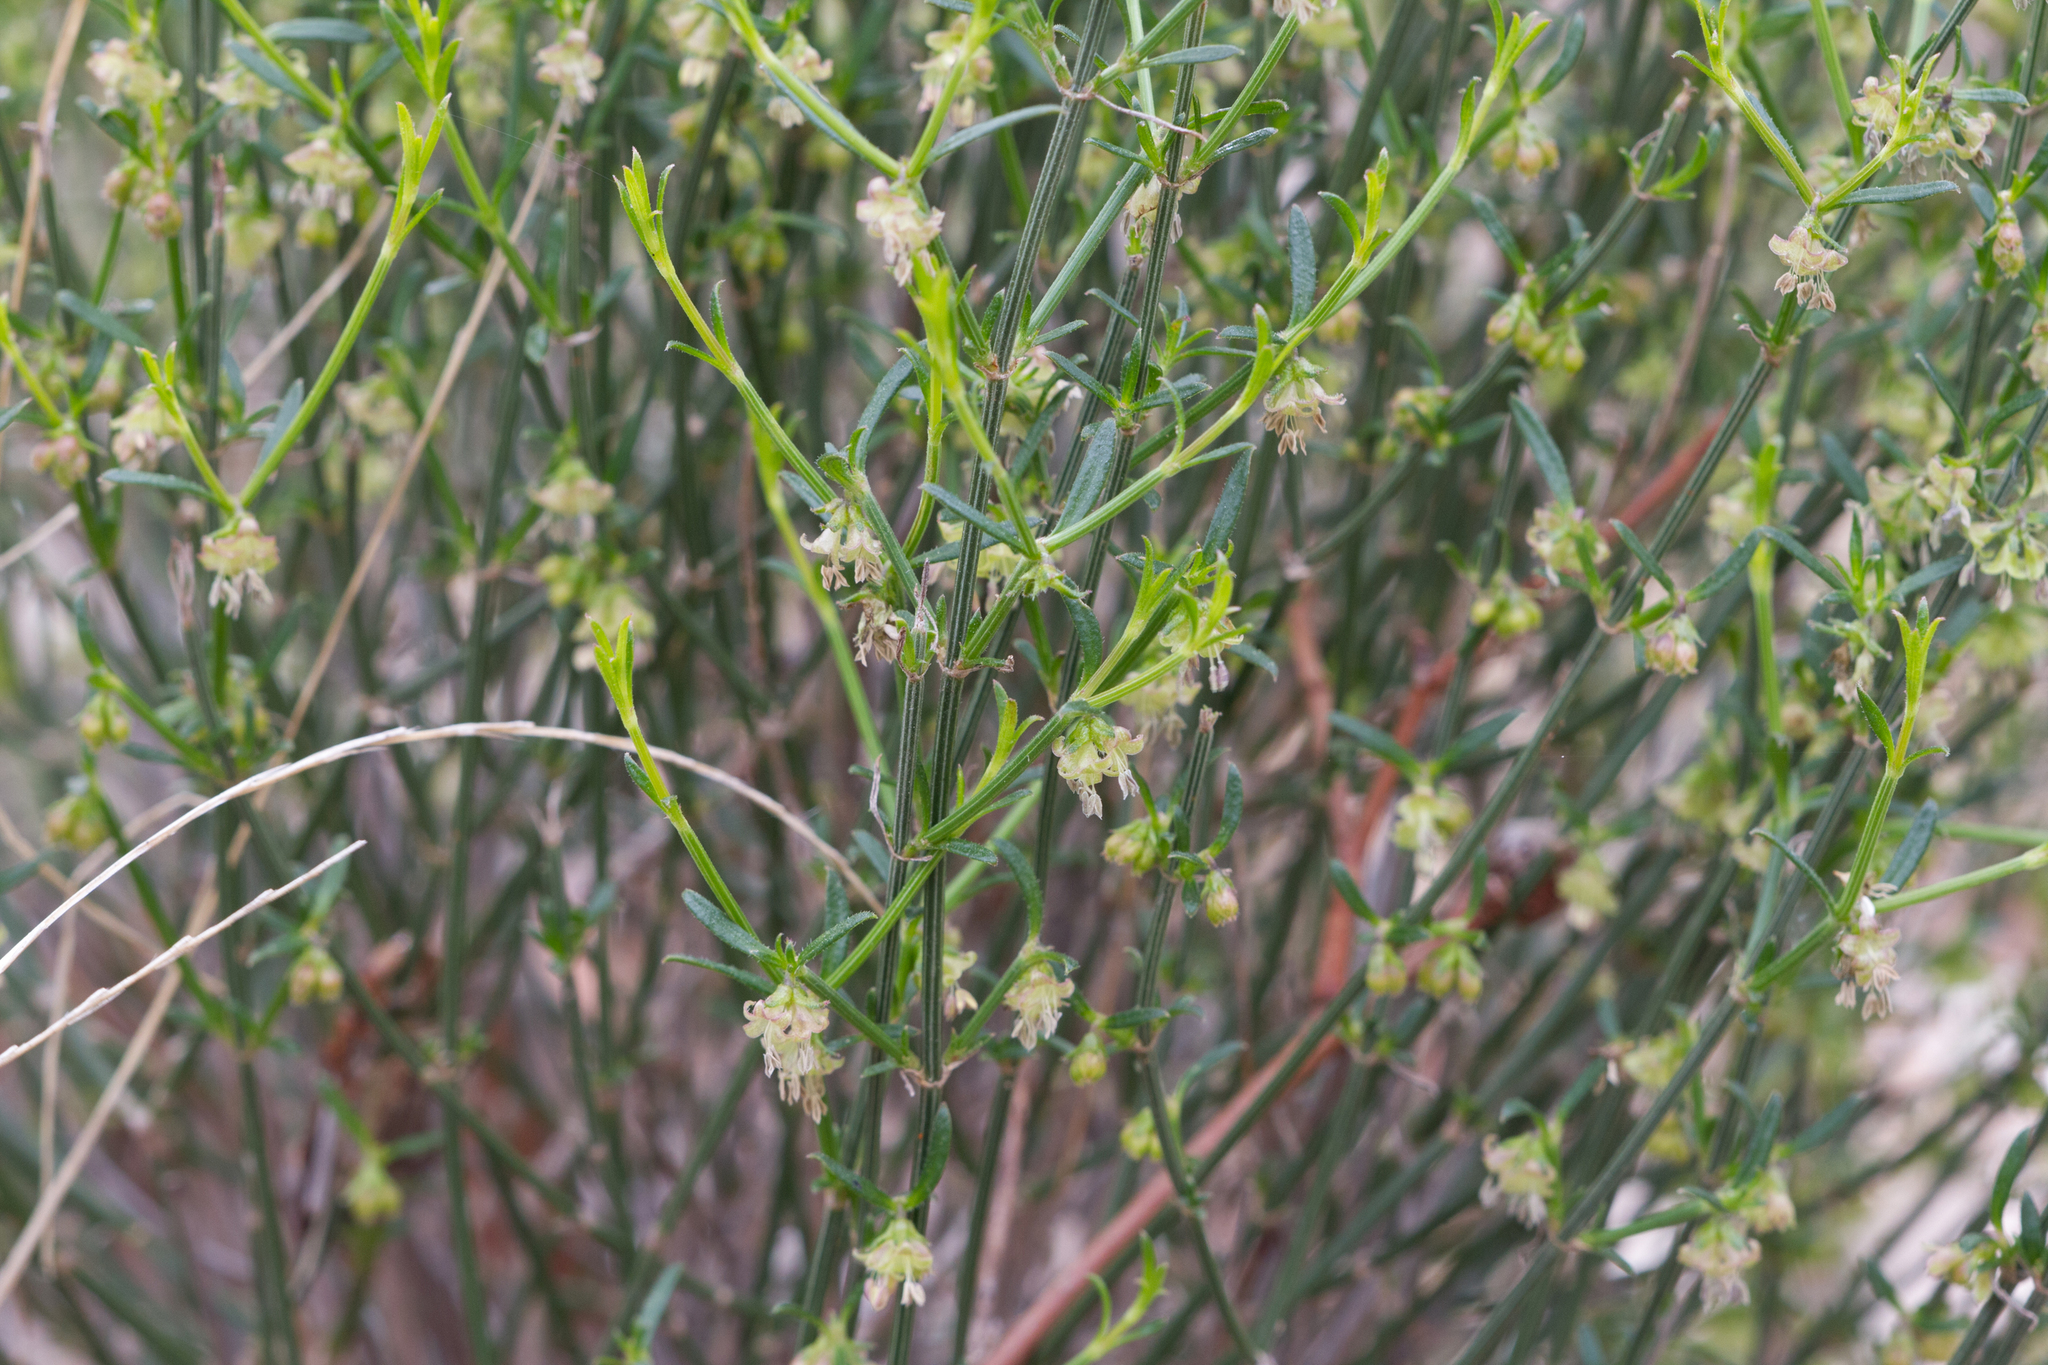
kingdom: Plantae
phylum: Tracheophyta
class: Magnoliopsida
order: Gentianales
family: Rubiaceae
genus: Opercularia
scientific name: Opercularia turpis
